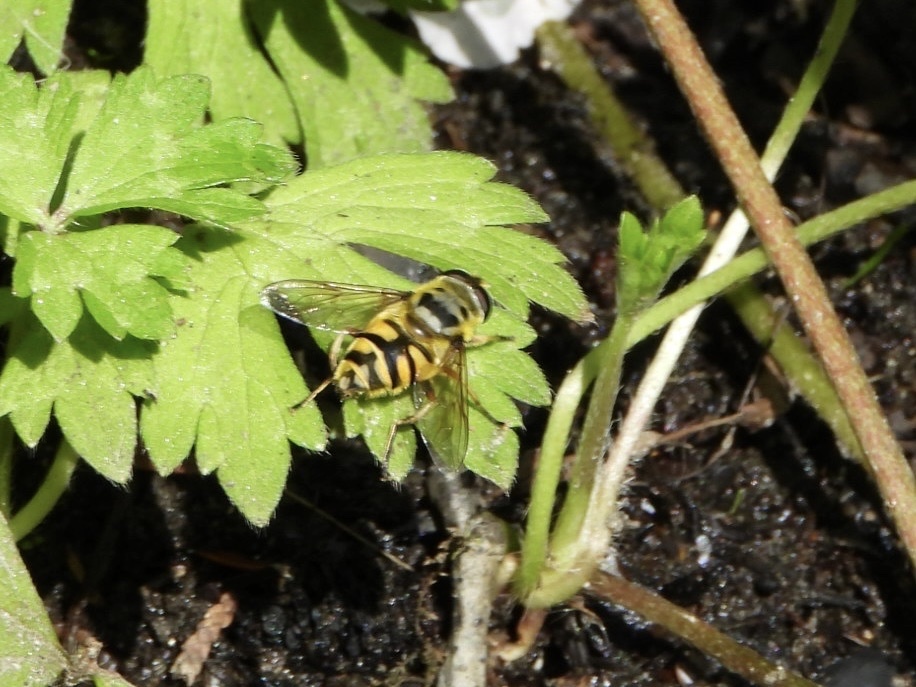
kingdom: Animalia
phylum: Arthropoda
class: Insecta
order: Diptera
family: Syrphidae
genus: Myathropa
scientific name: Myathropa florea
